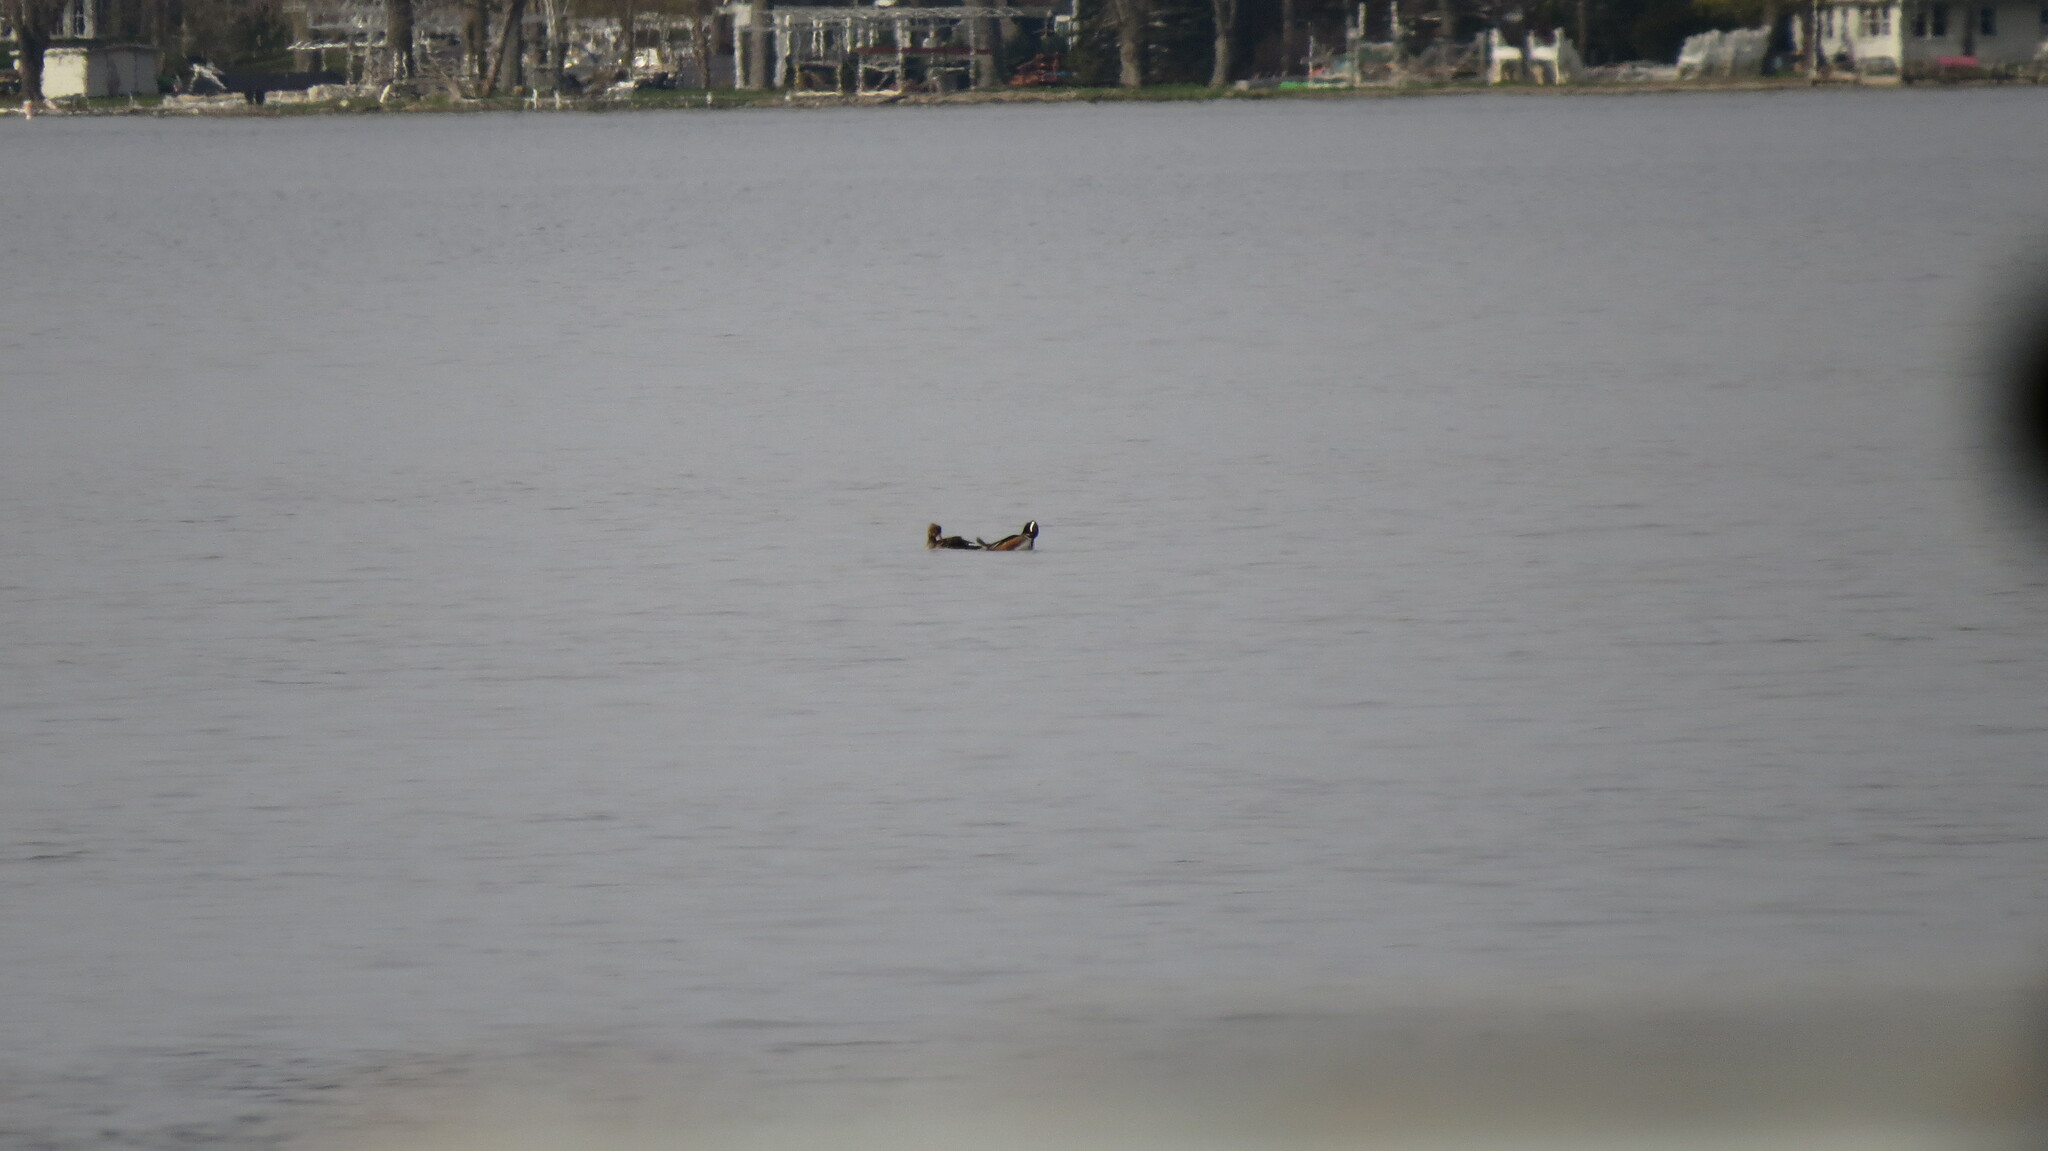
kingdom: Animalia
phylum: Chordata
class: Aves
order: Anseriformes
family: Anatidae
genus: Lophodytes
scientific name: Lophodytes cucullatus
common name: Hooded merganser
